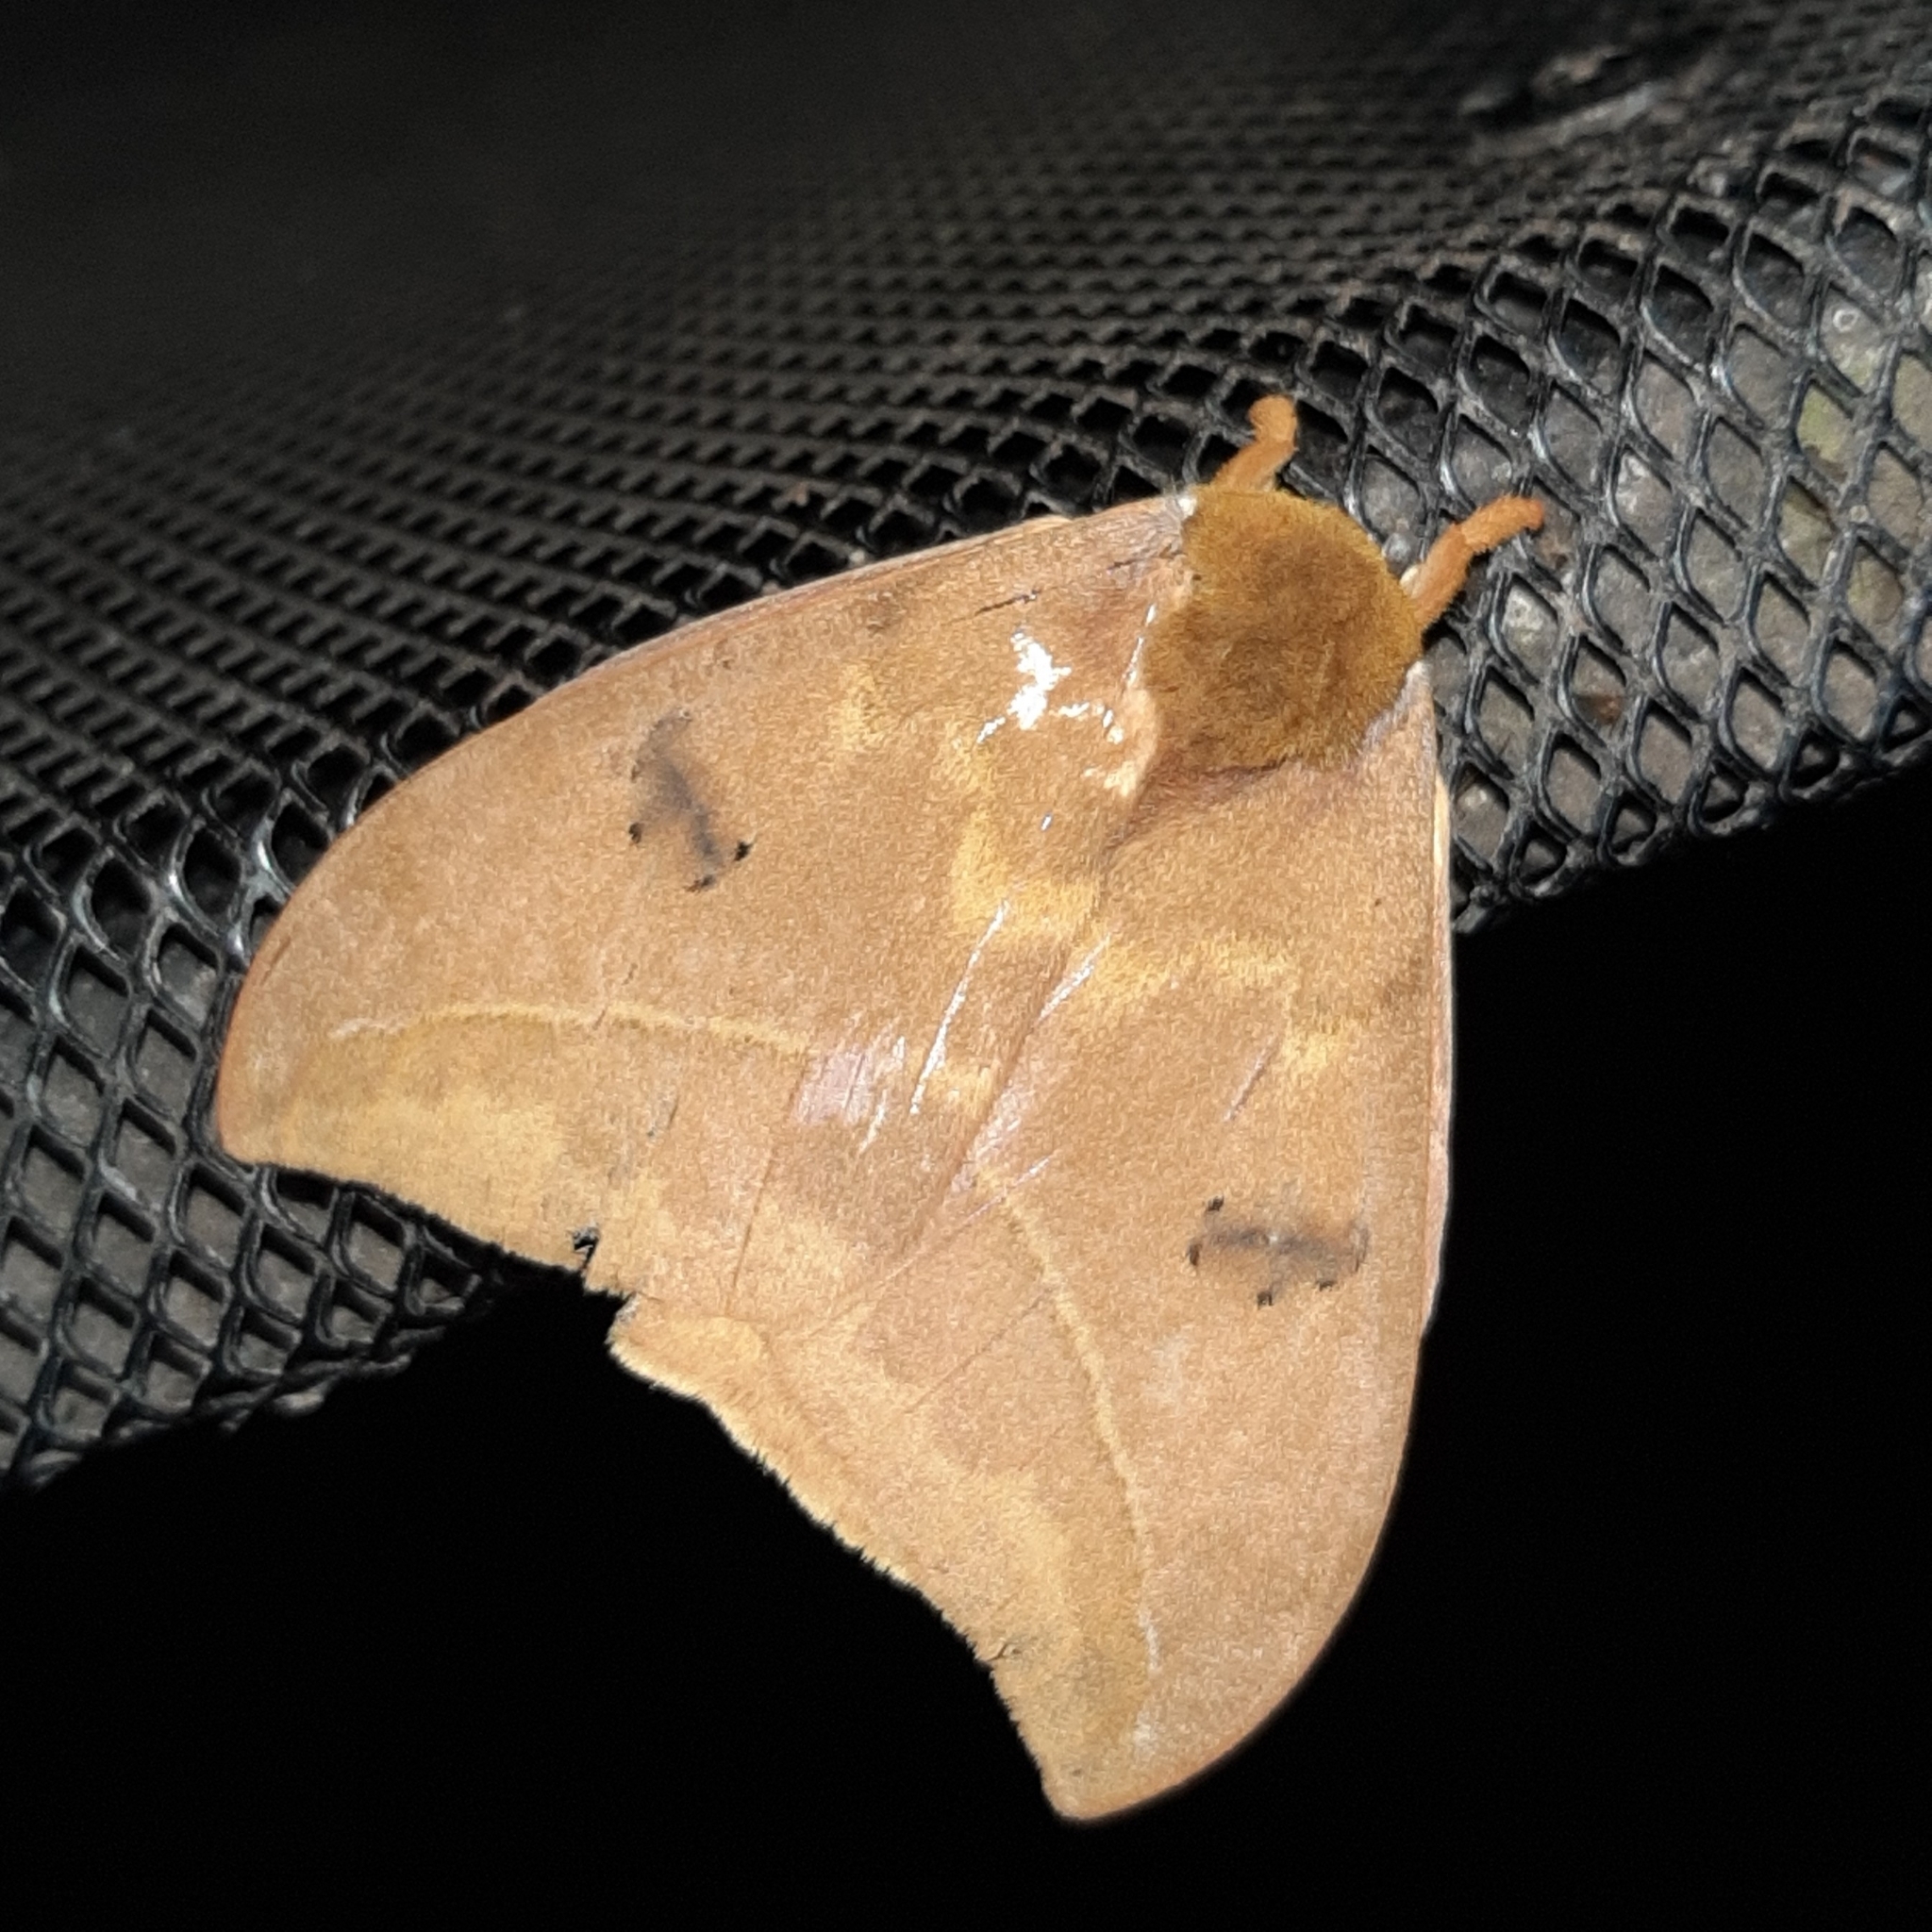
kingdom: Animalia
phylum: Arthropoda
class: Insecta
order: Lepidoptera
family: Saturniidae
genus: Automeris
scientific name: Automeris tridens
